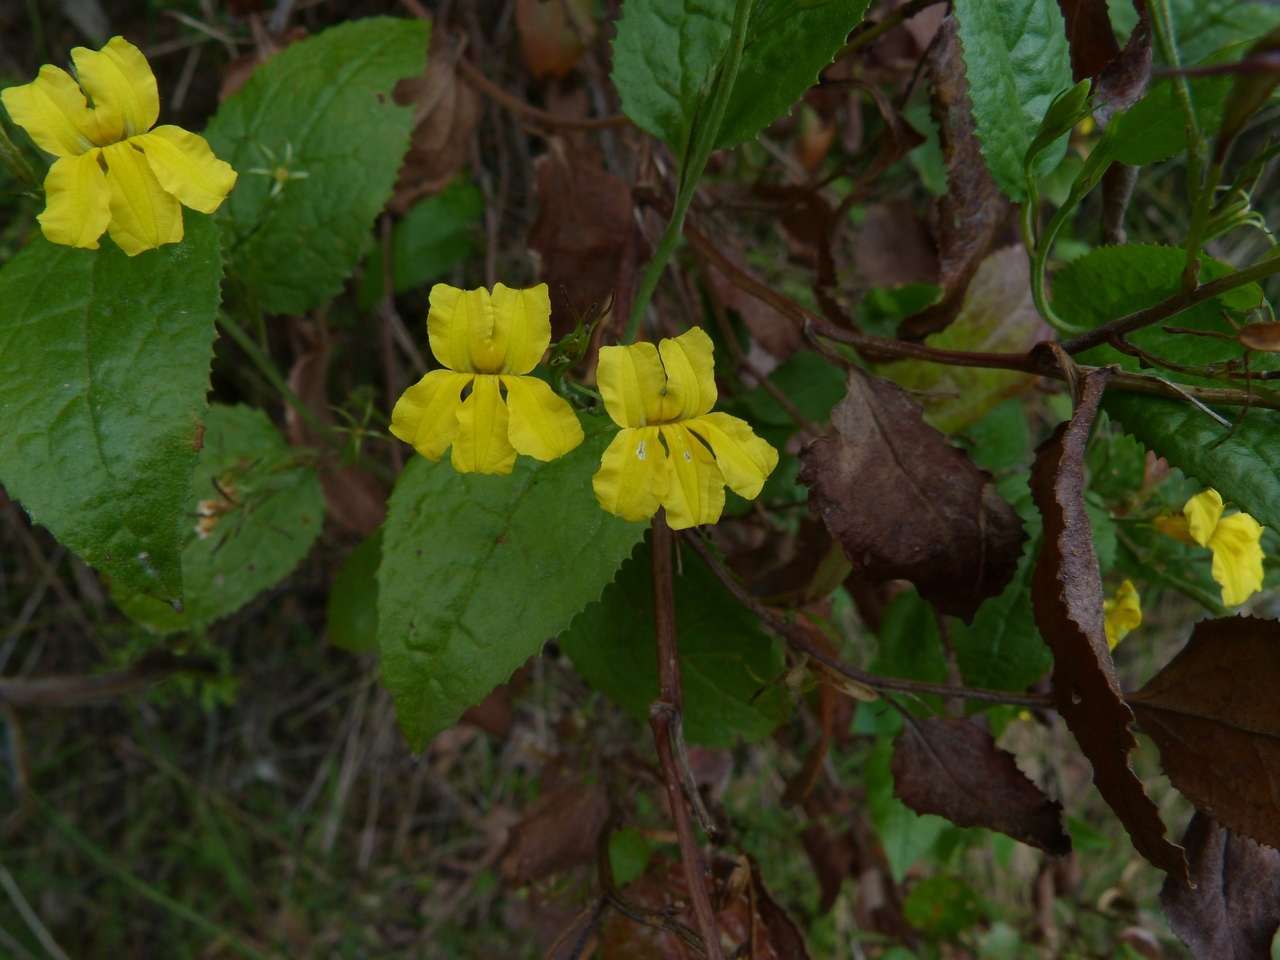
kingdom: Plantae
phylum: Tracheophyta
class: Magnoliopsida
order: Asterales
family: Goodeniaceae
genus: Goodenia
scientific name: Goodenia ovata
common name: Hop goodenia
